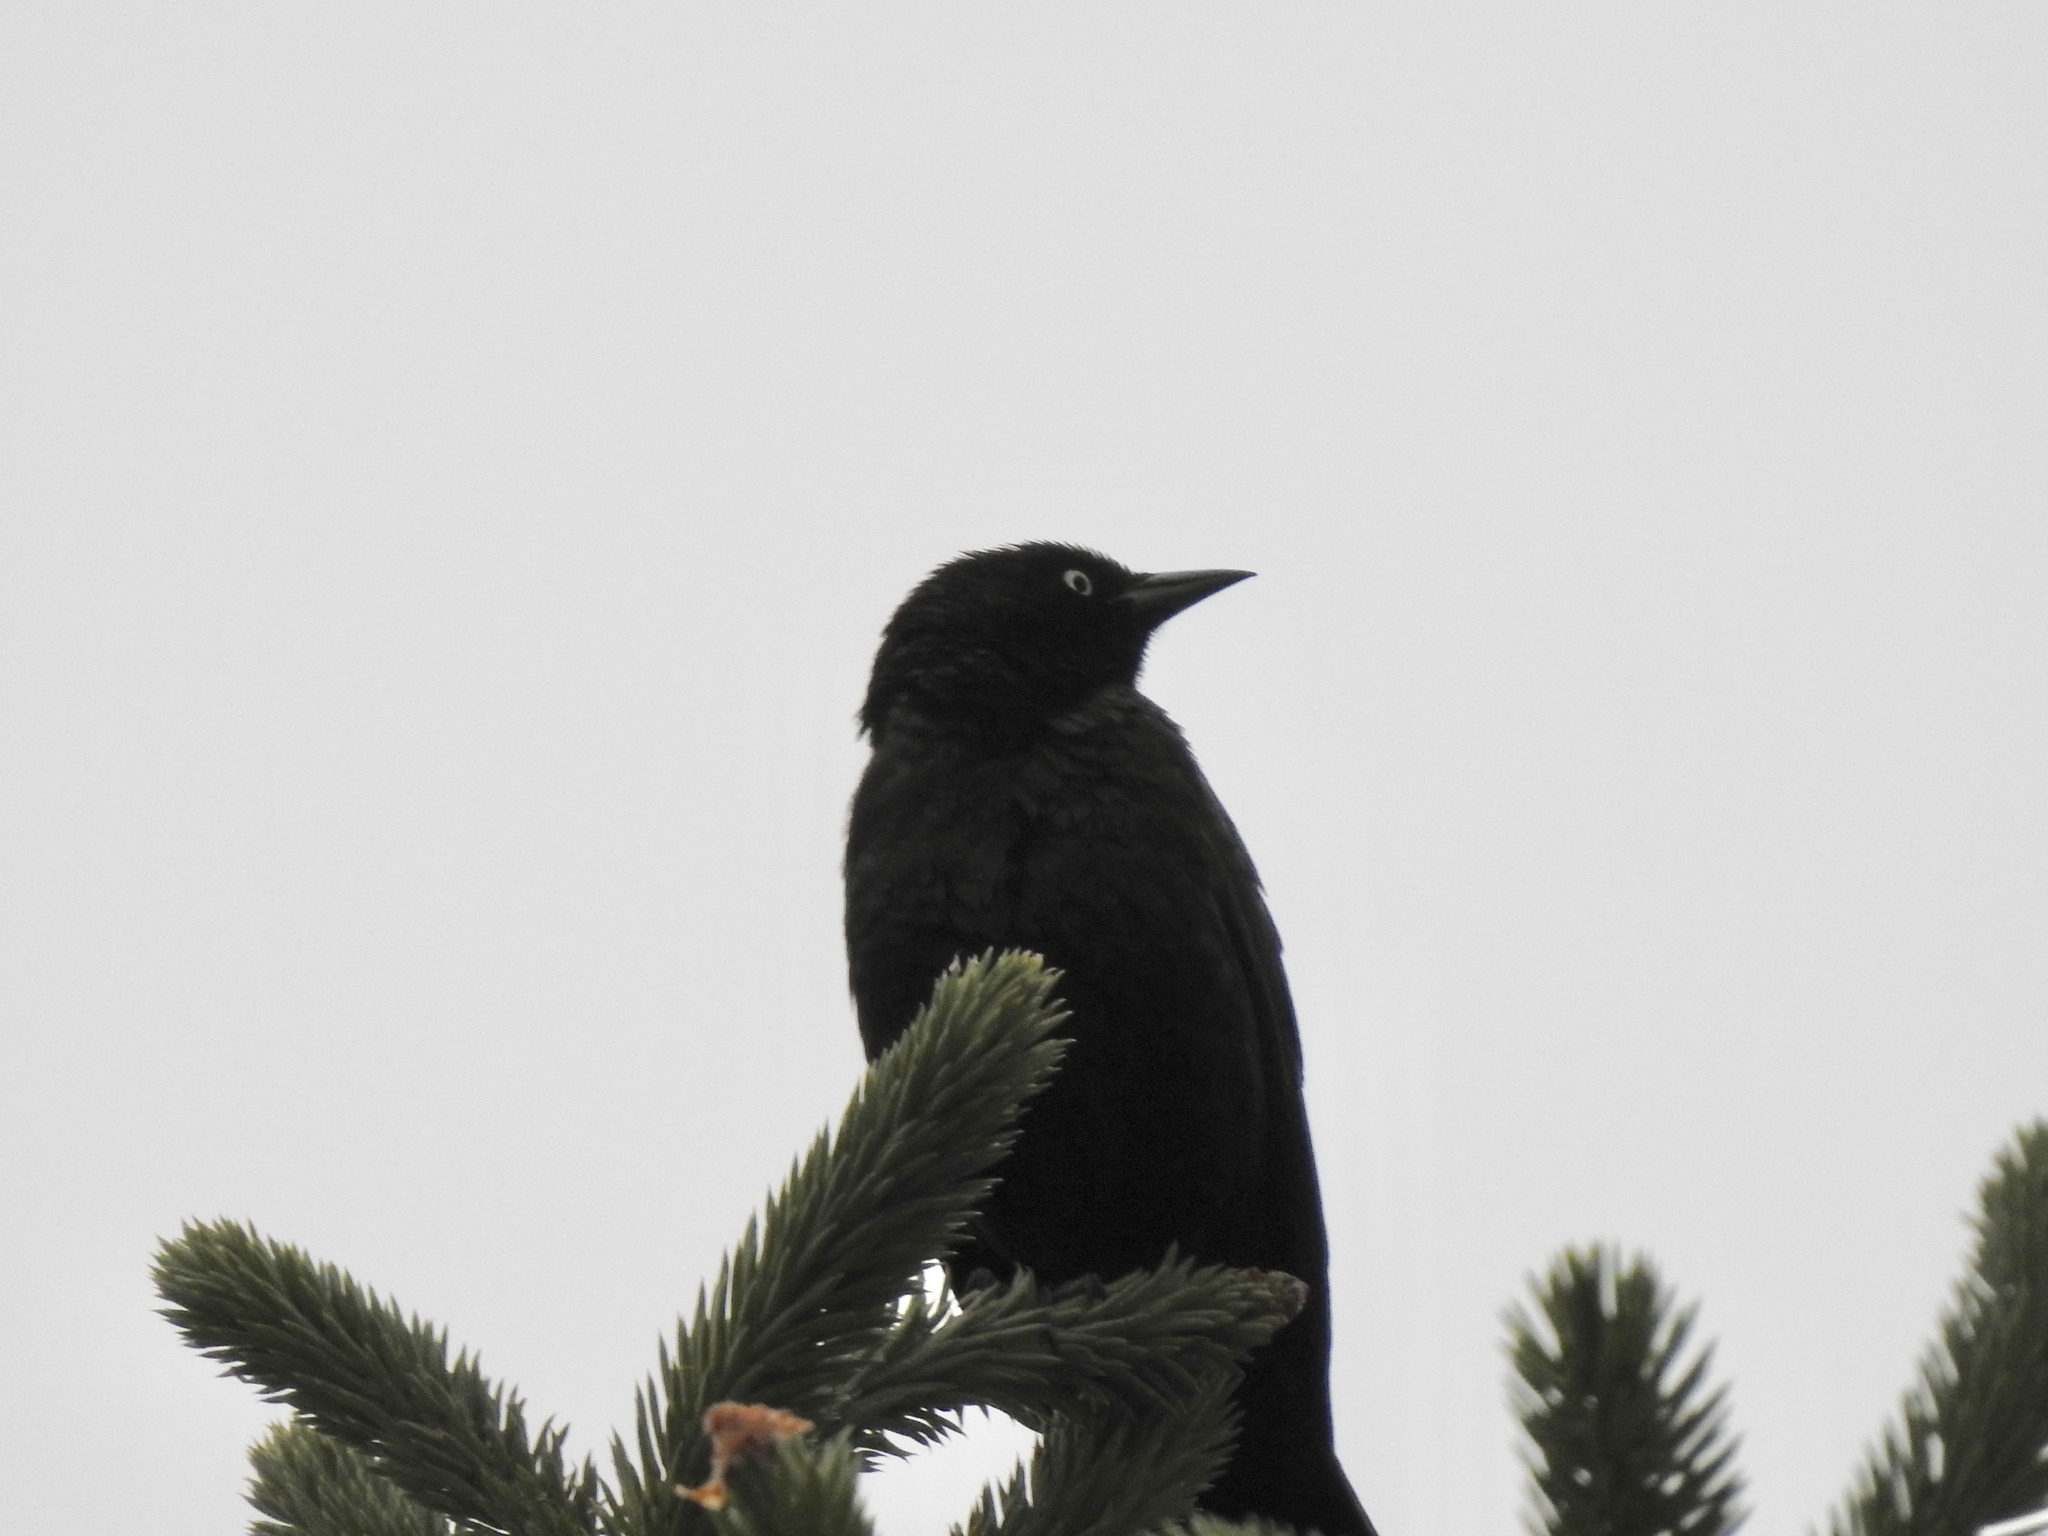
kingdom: Animalia
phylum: Chordata
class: Aves
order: Passeriformes
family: Icteridae
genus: Euphagus
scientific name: Euphagus cyanocephalus
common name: Brewer's blackbird
